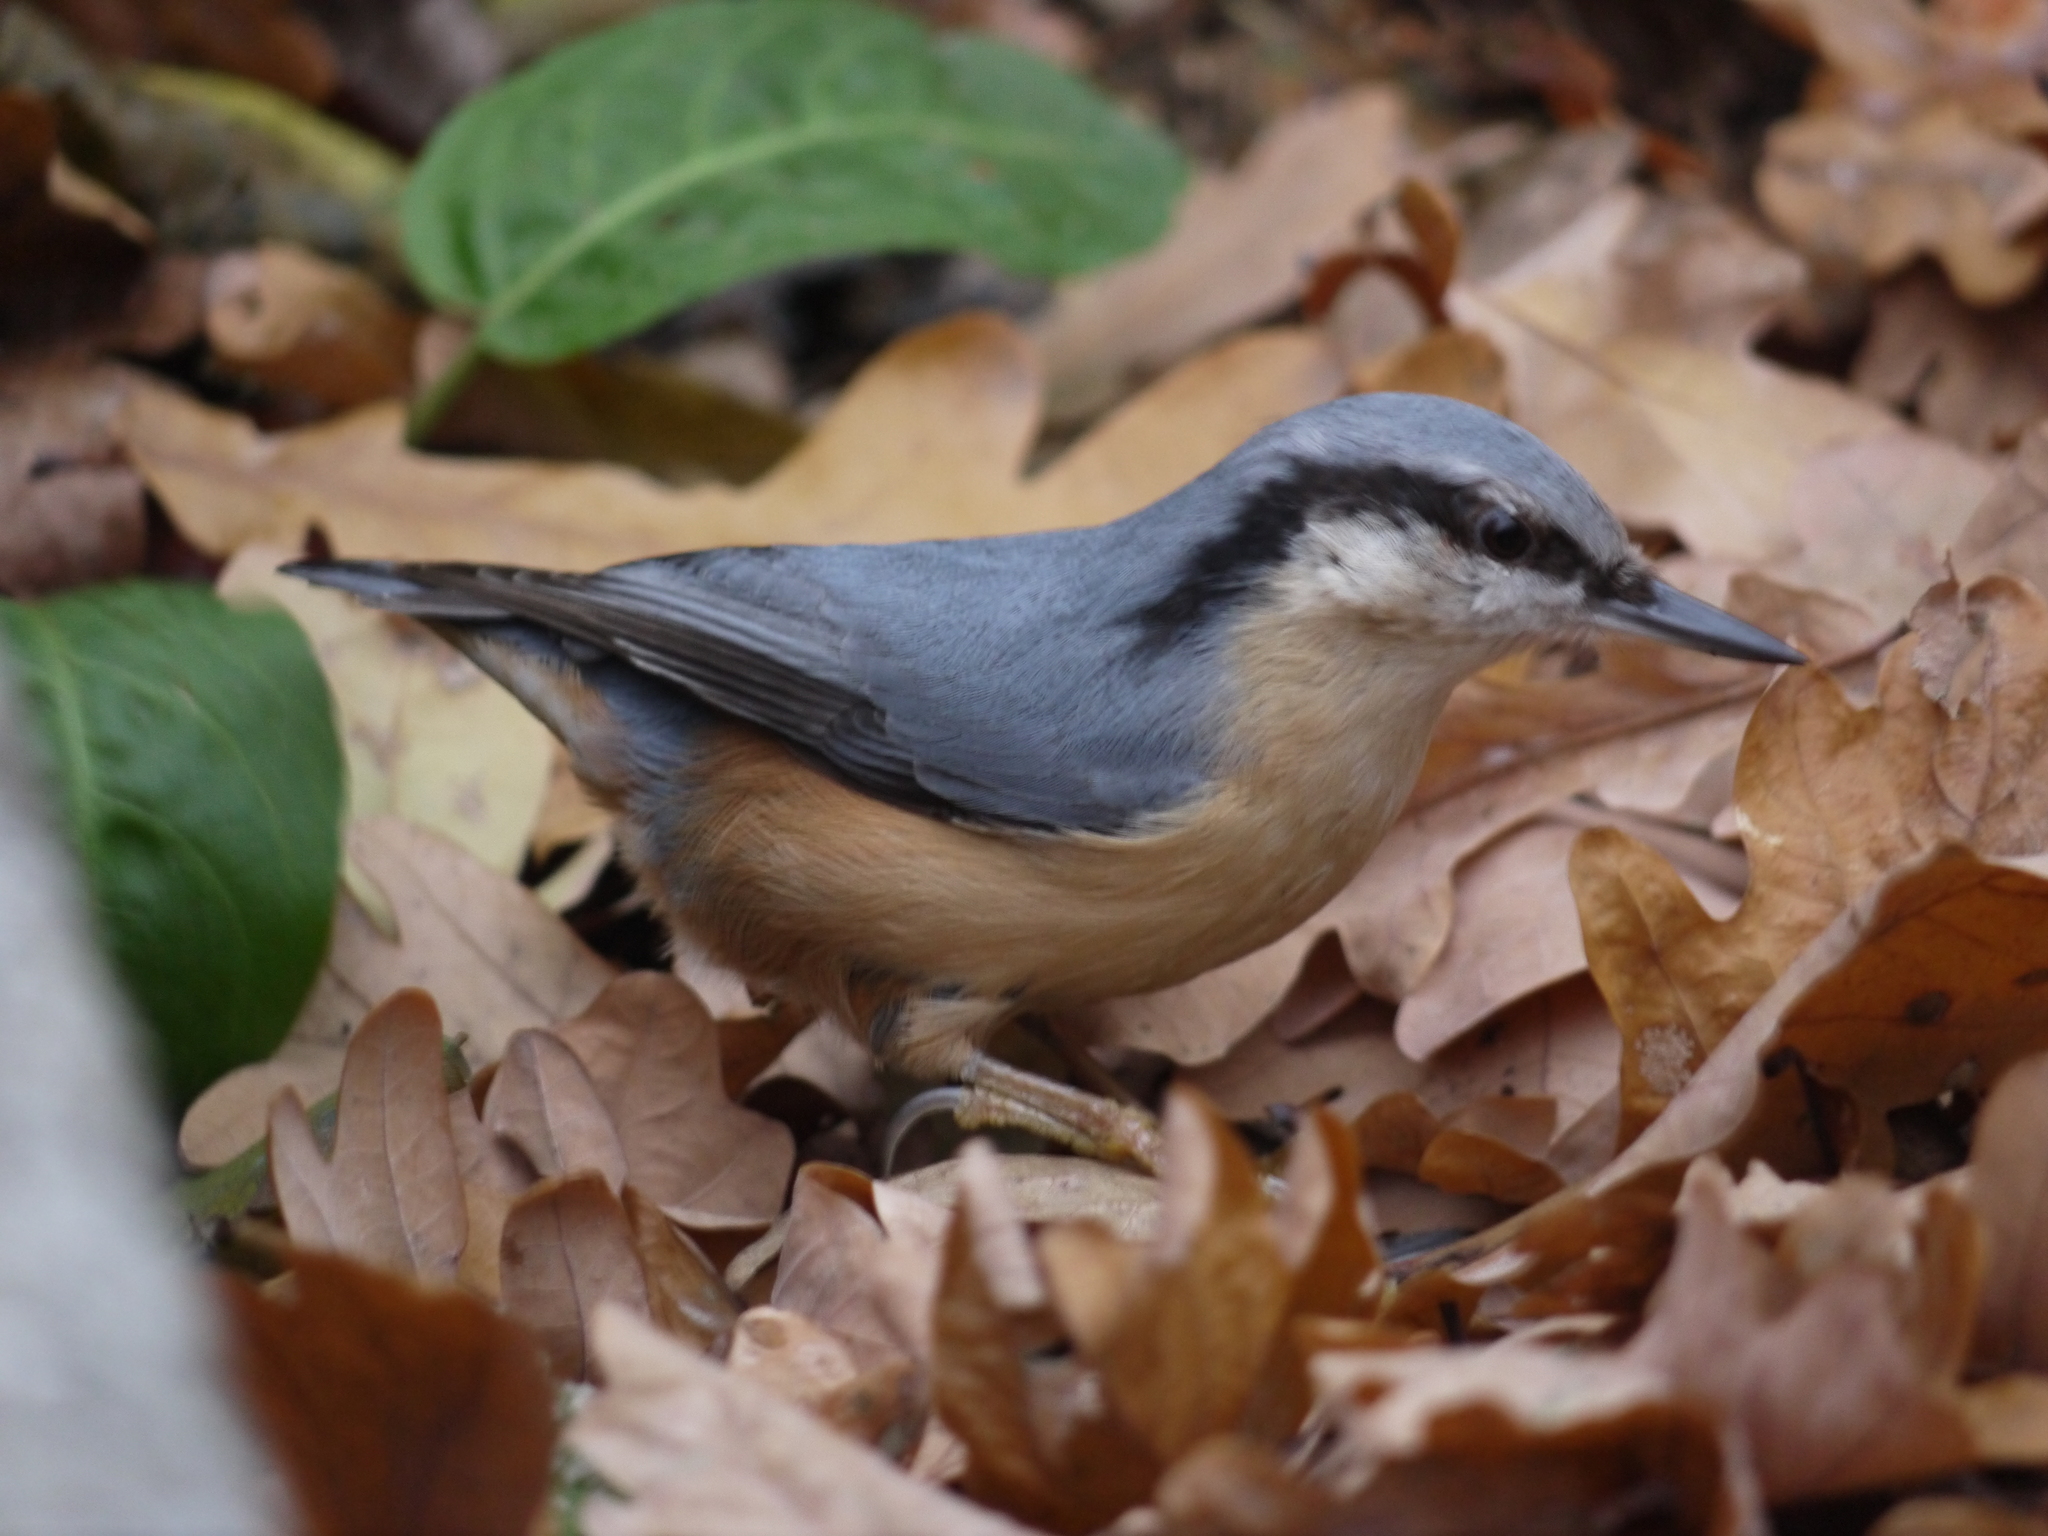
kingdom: Animalia
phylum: Chordata
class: Aves
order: Passeriformes
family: Sittidae
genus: Sitta
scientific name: Sitta europaea
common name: Eurasian nuthatch
